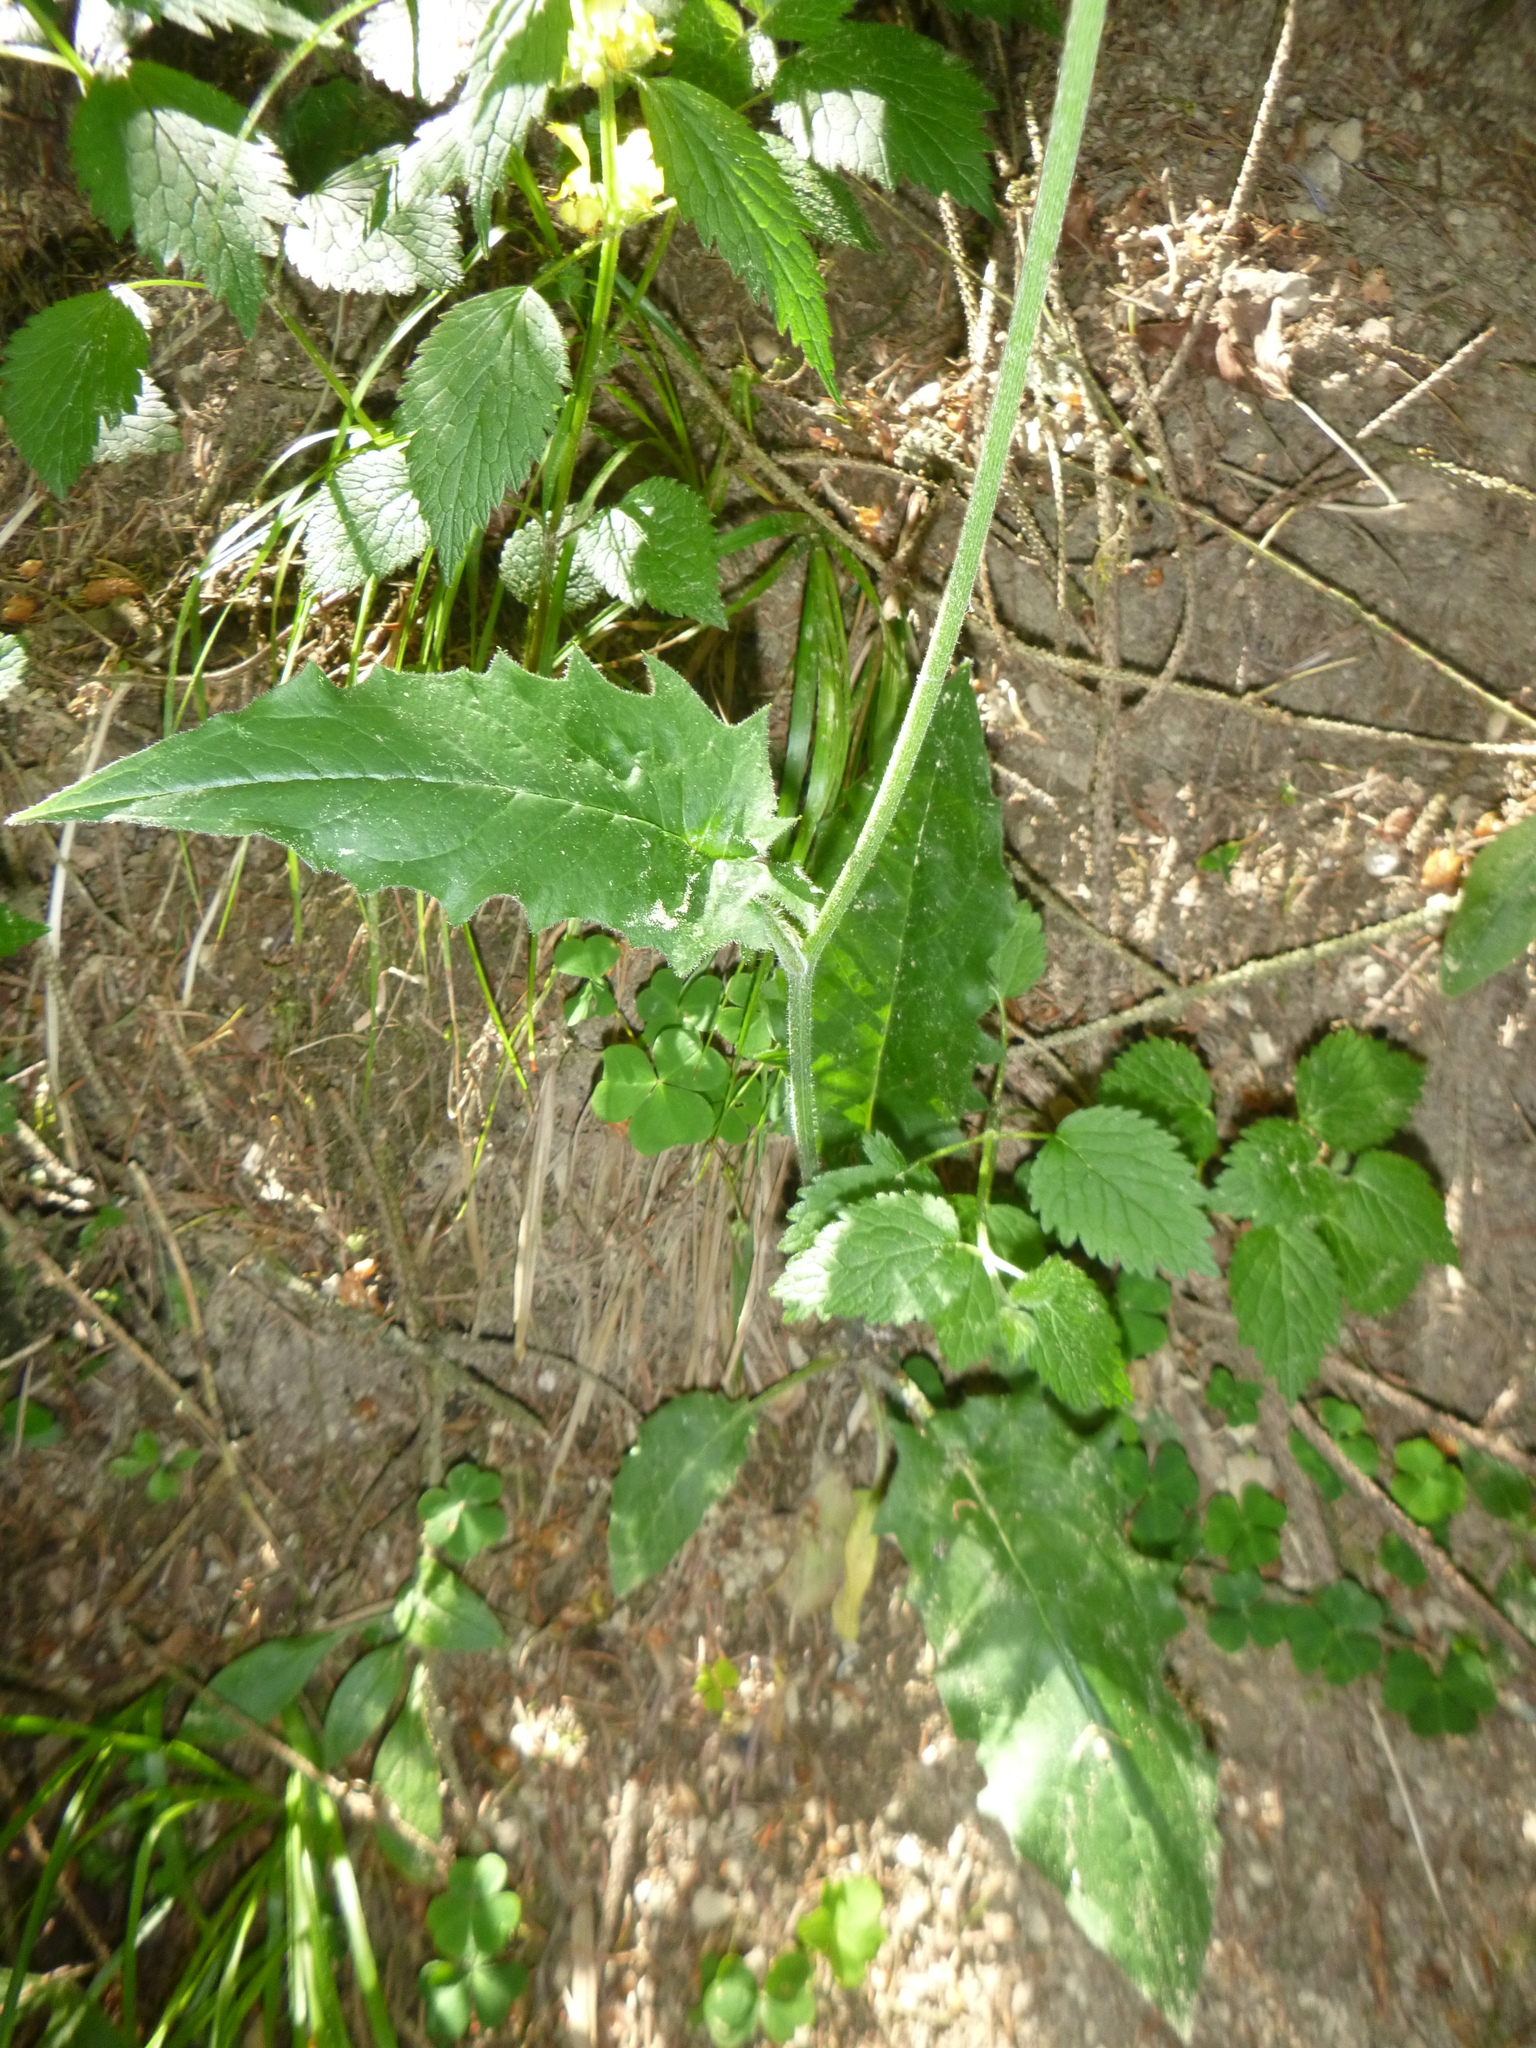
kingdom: Plantae
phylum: Tracheophyta
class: Magnoliopsida
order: Asterales
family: Asteraceae
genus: Cirsium
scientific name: Cirsium oleraceum
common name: Cabbage thistle
